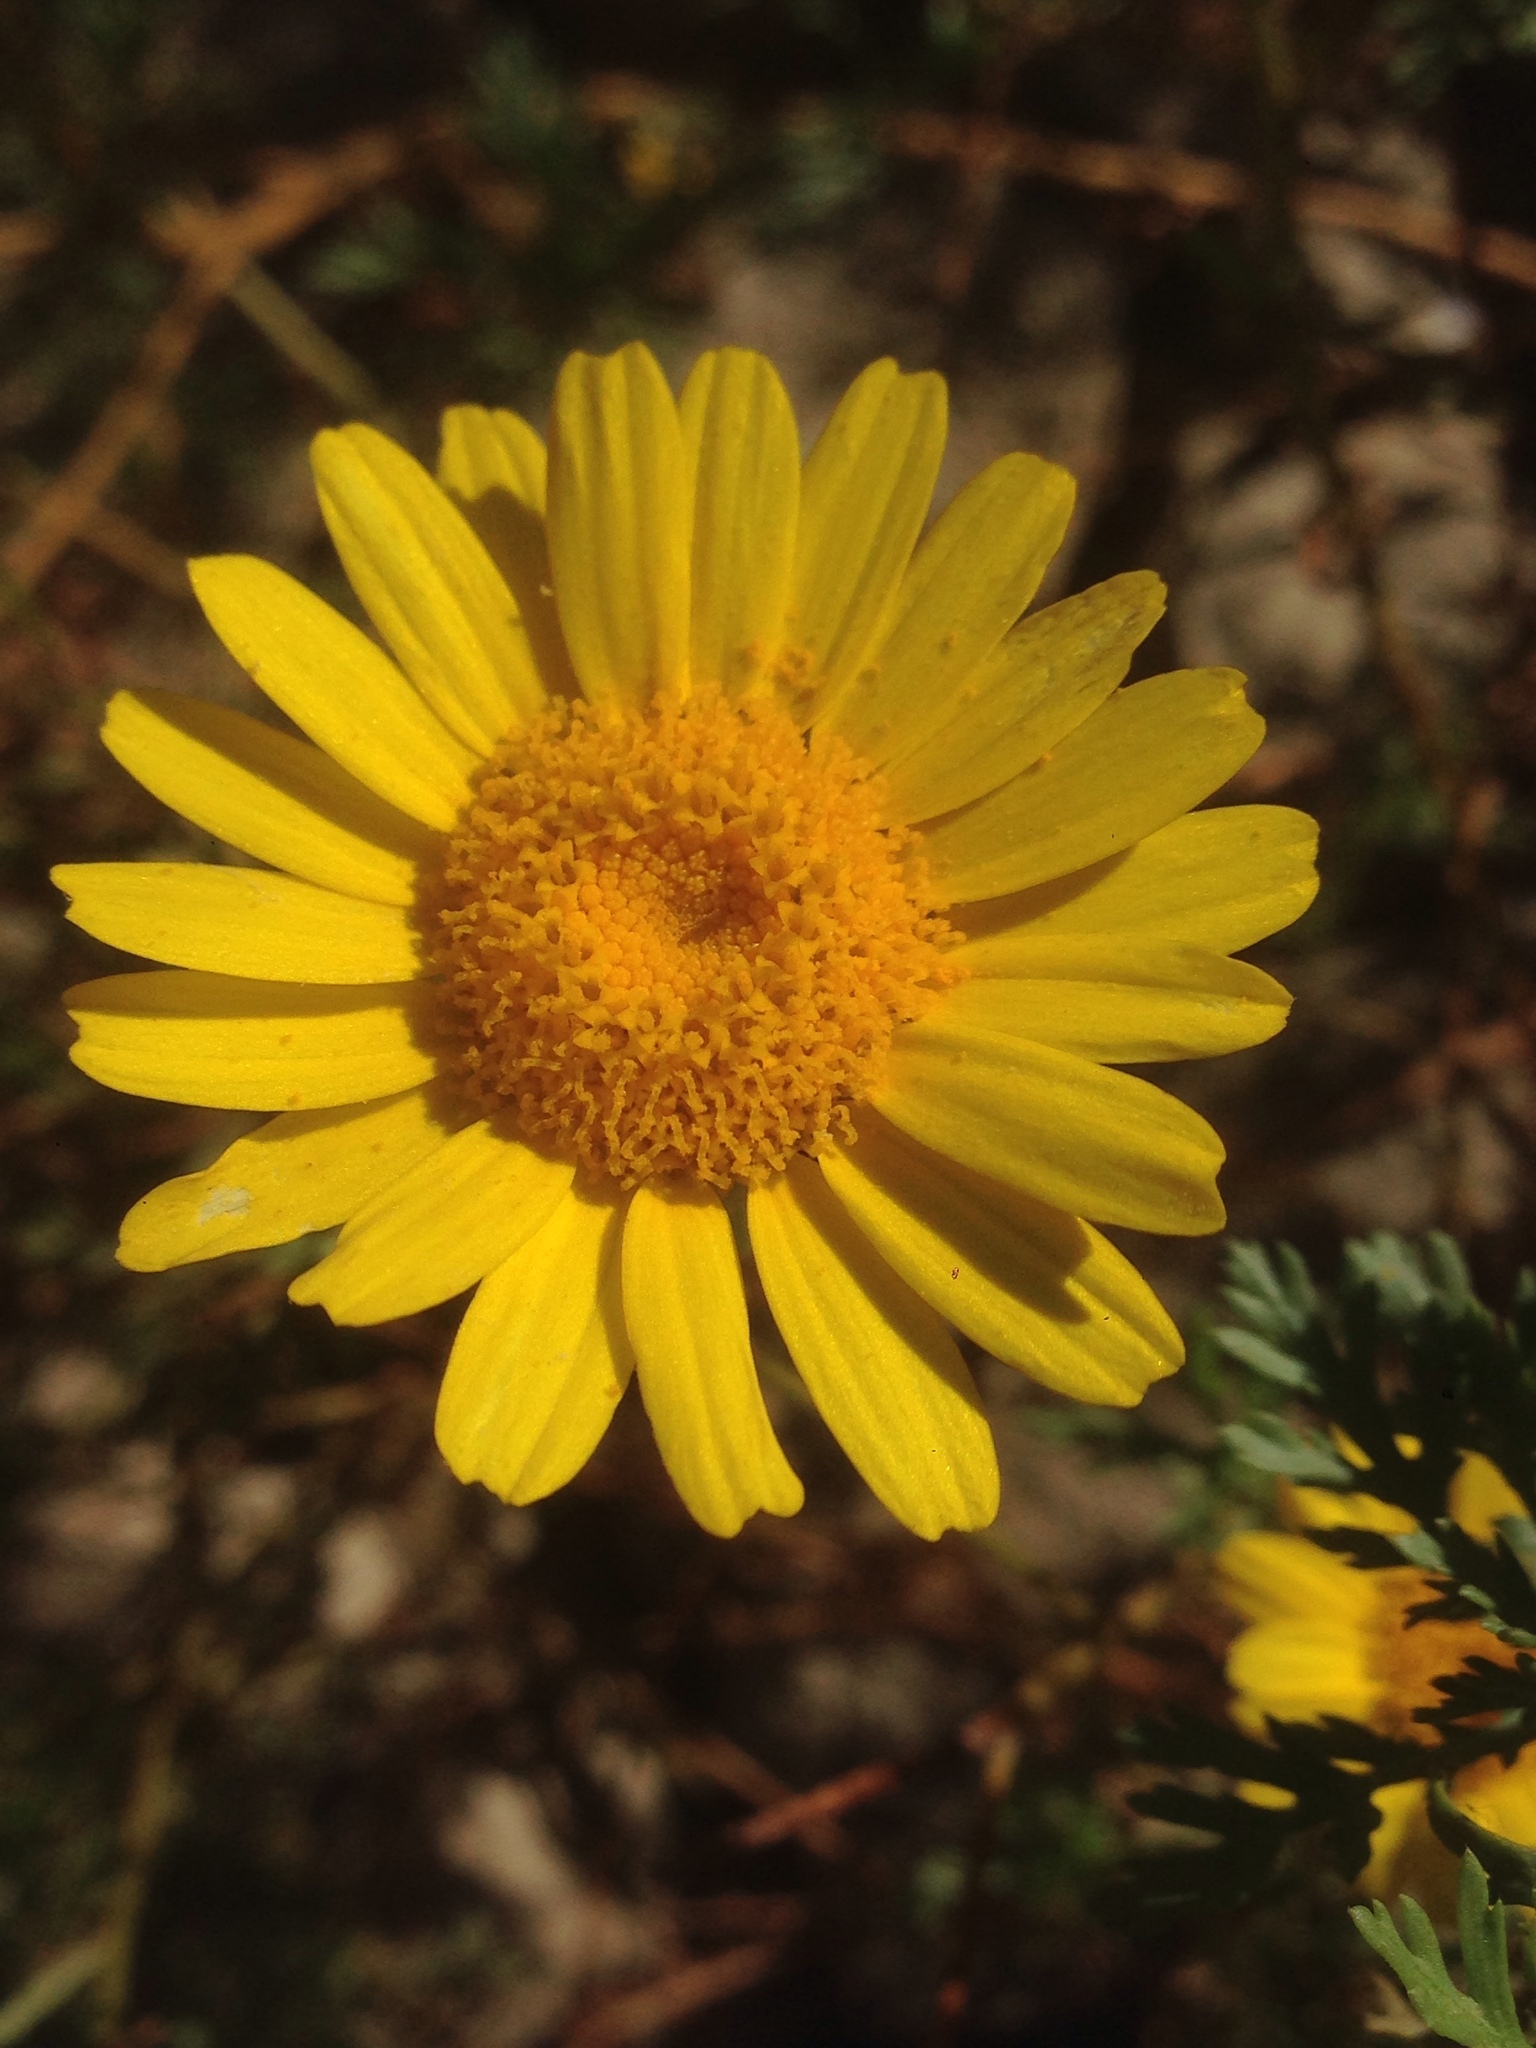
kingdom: Plantae
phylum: Tracheophyta
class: Magnoliopsida
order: Asterales
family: Asteraceae
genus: Glebionis
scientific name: Glebionis coronaria
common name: Crowndaisy
